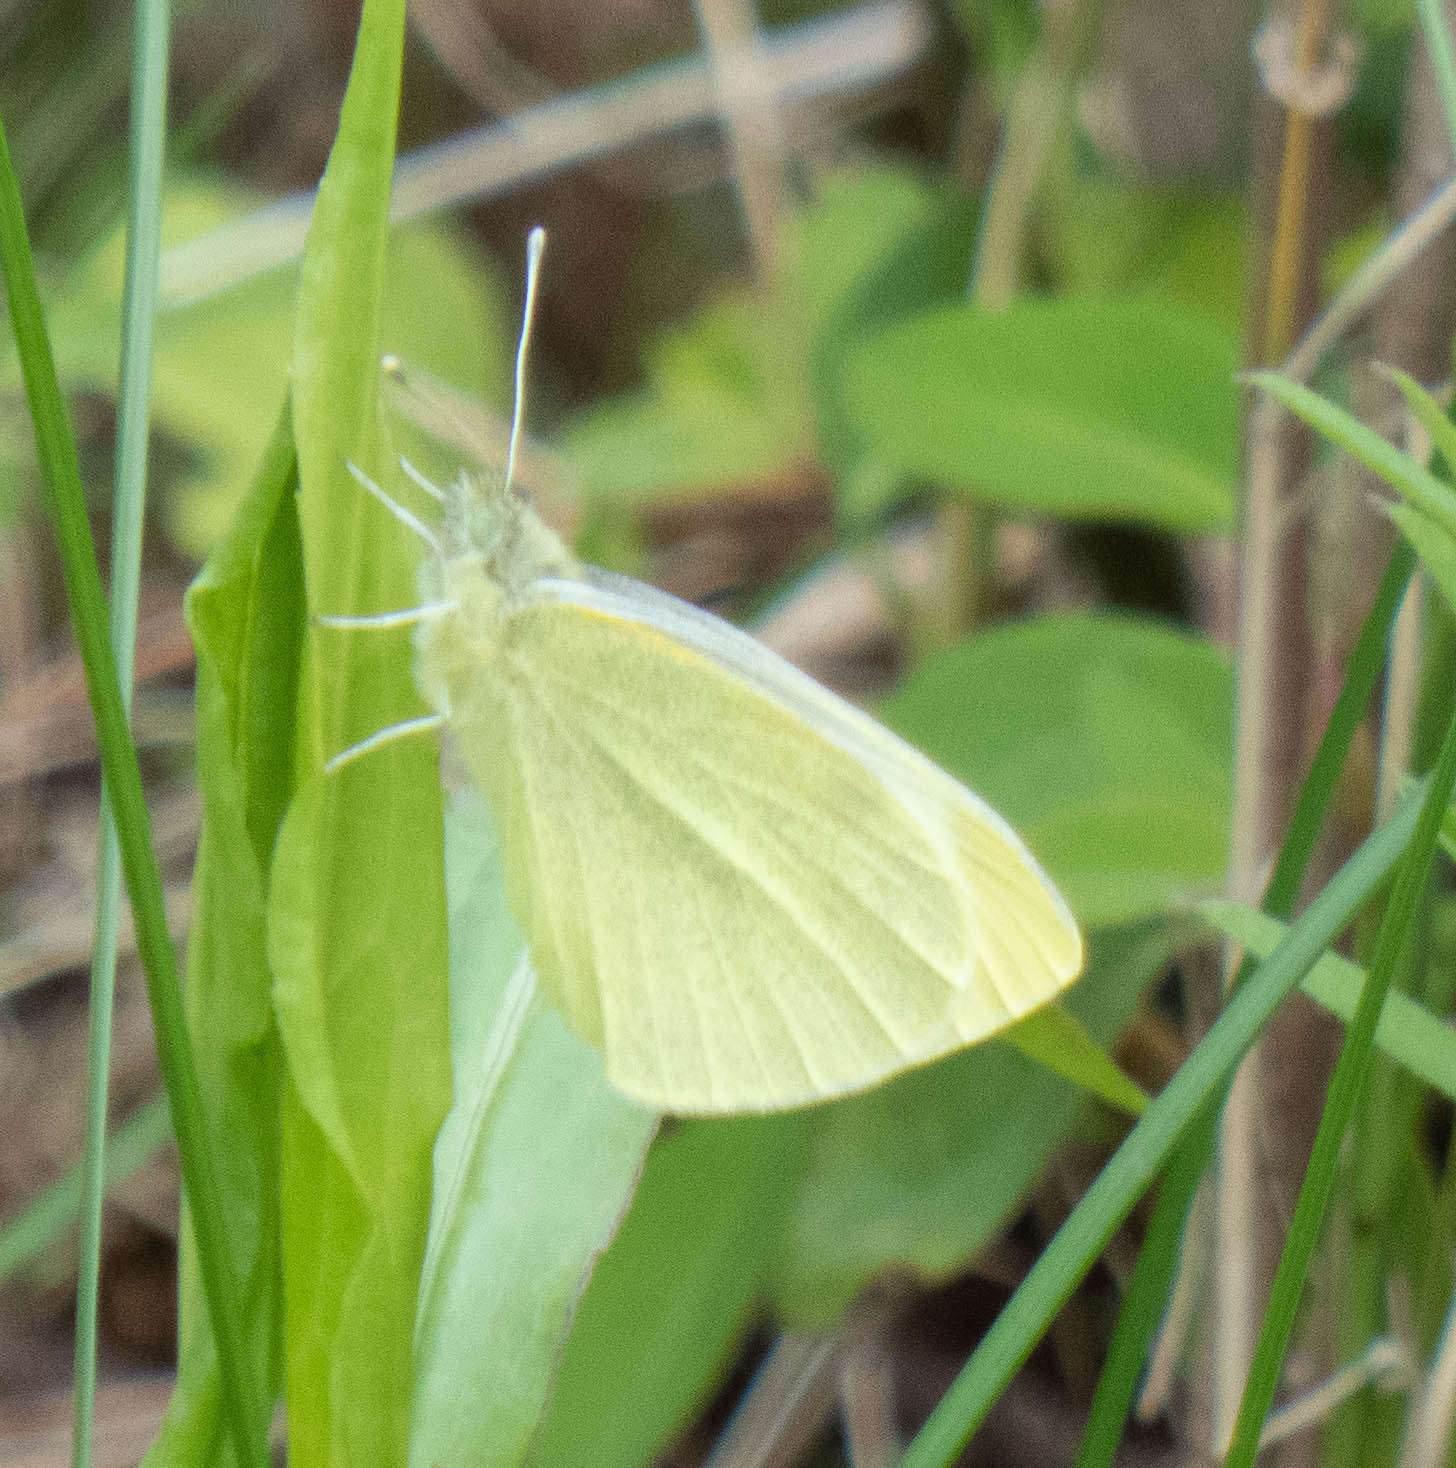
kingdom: Animalia
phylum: Arthropoda
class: Insecta
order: Lepidoptera
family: Pieridae
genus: Pieris
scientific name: Pieris rapae
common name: Small white
